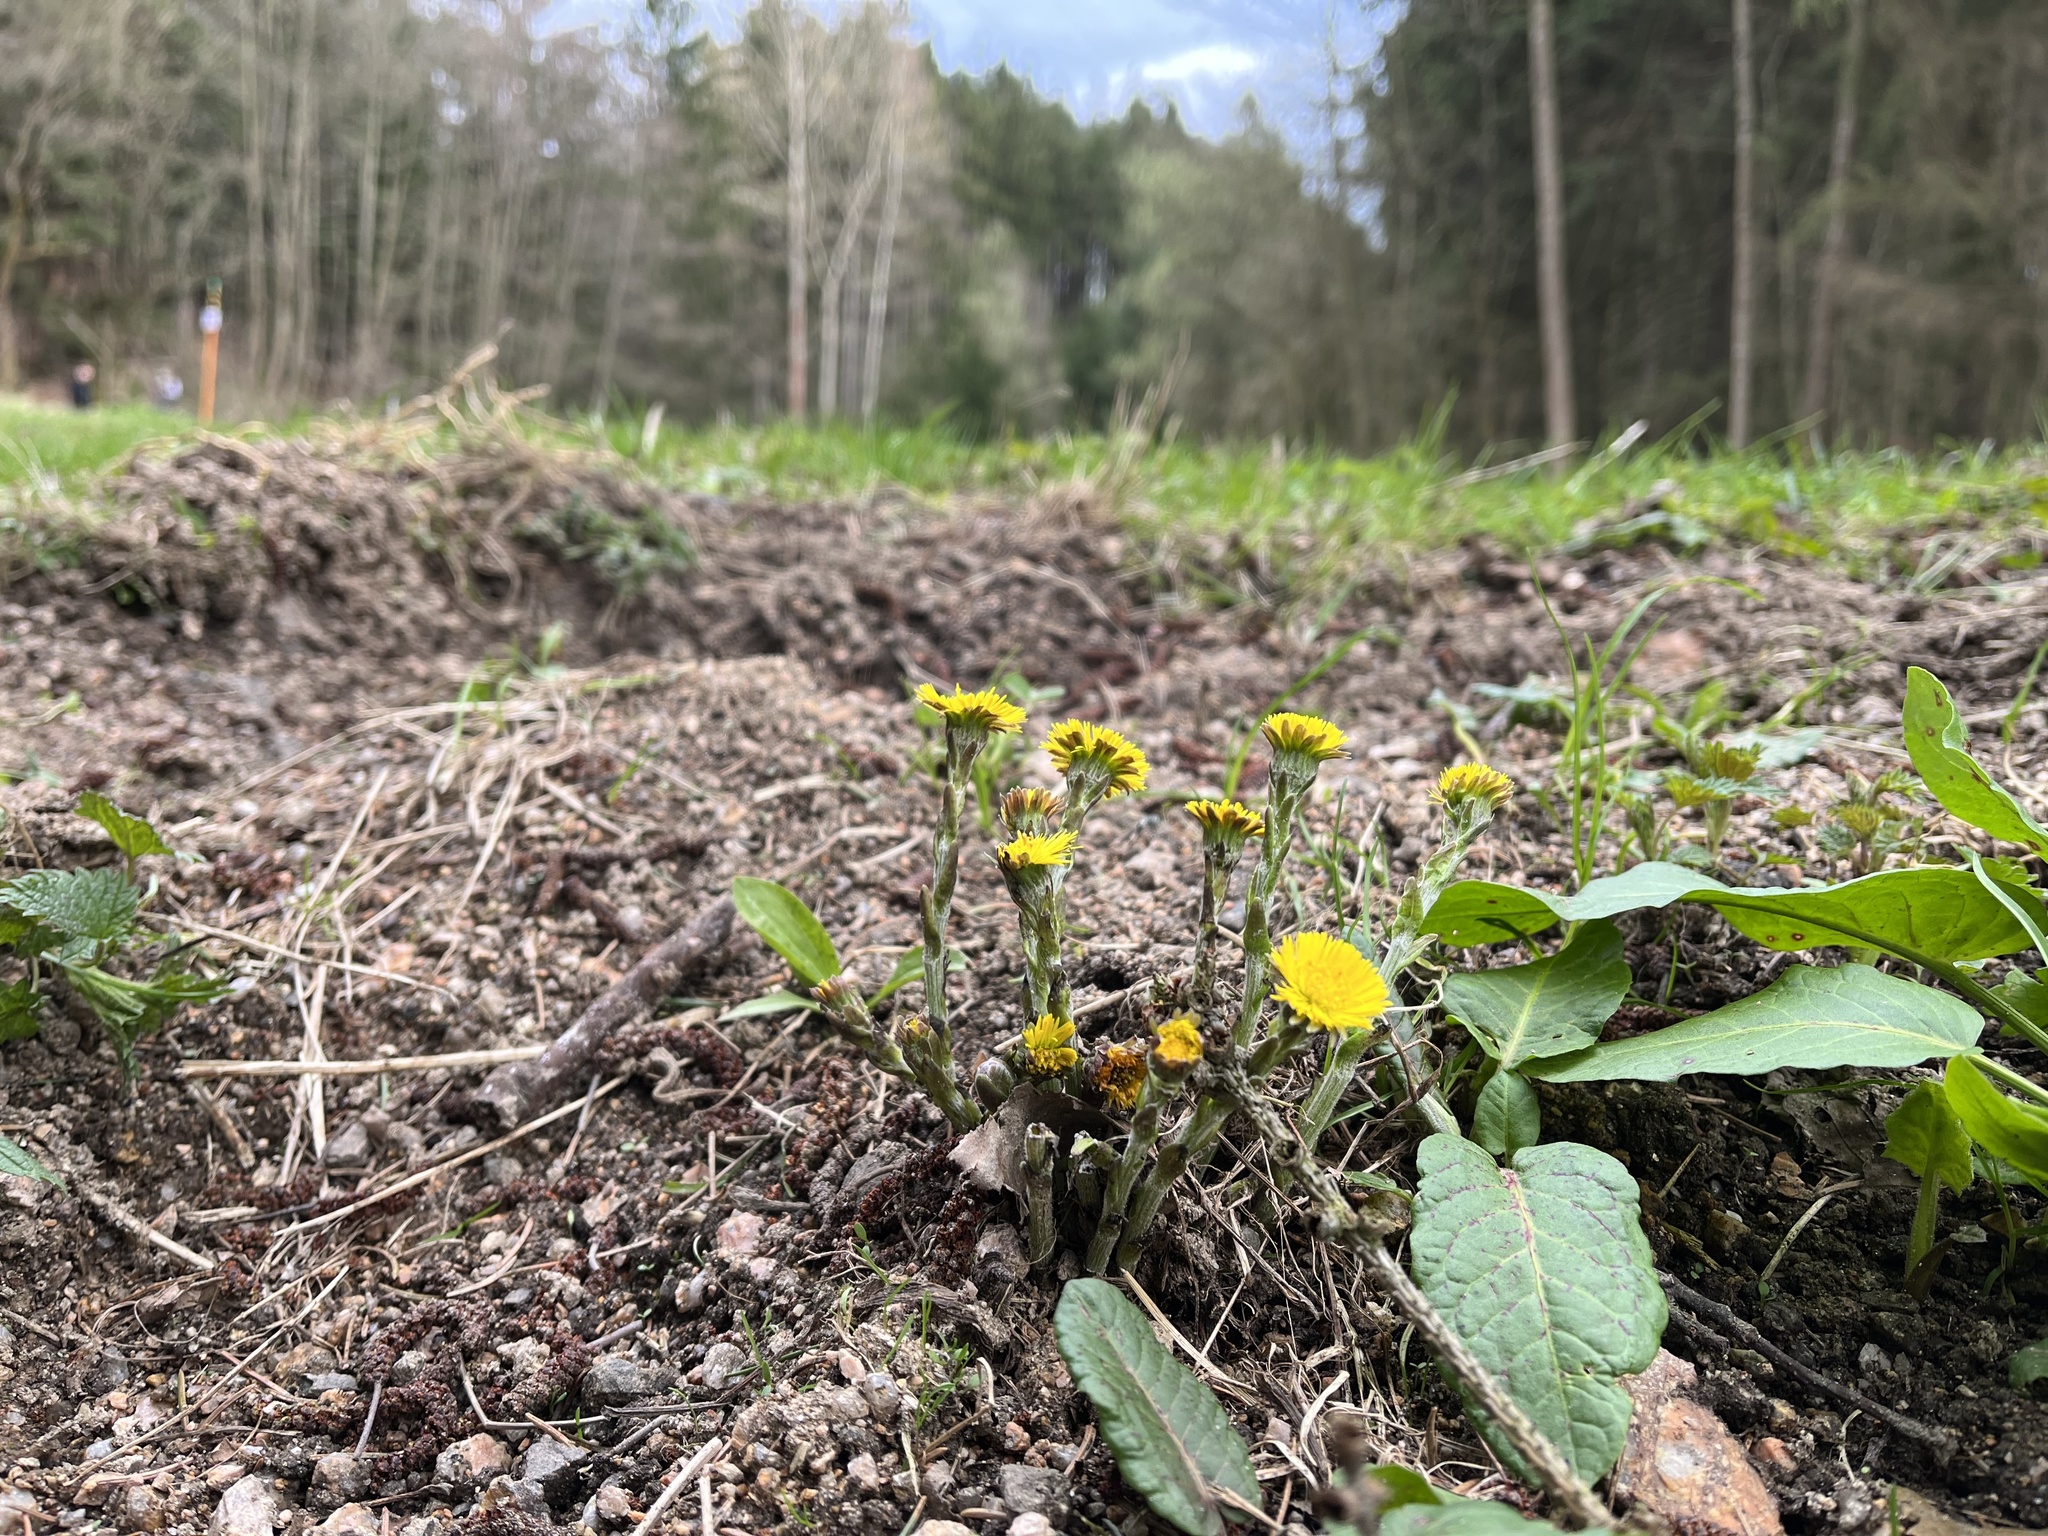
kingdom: Plantae
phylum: Tracheophyta
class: Magnoliopsida
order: Asterales
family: Asteraceae
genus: Tussilago
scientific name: Tussilago farfara
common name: Coltsfoot
